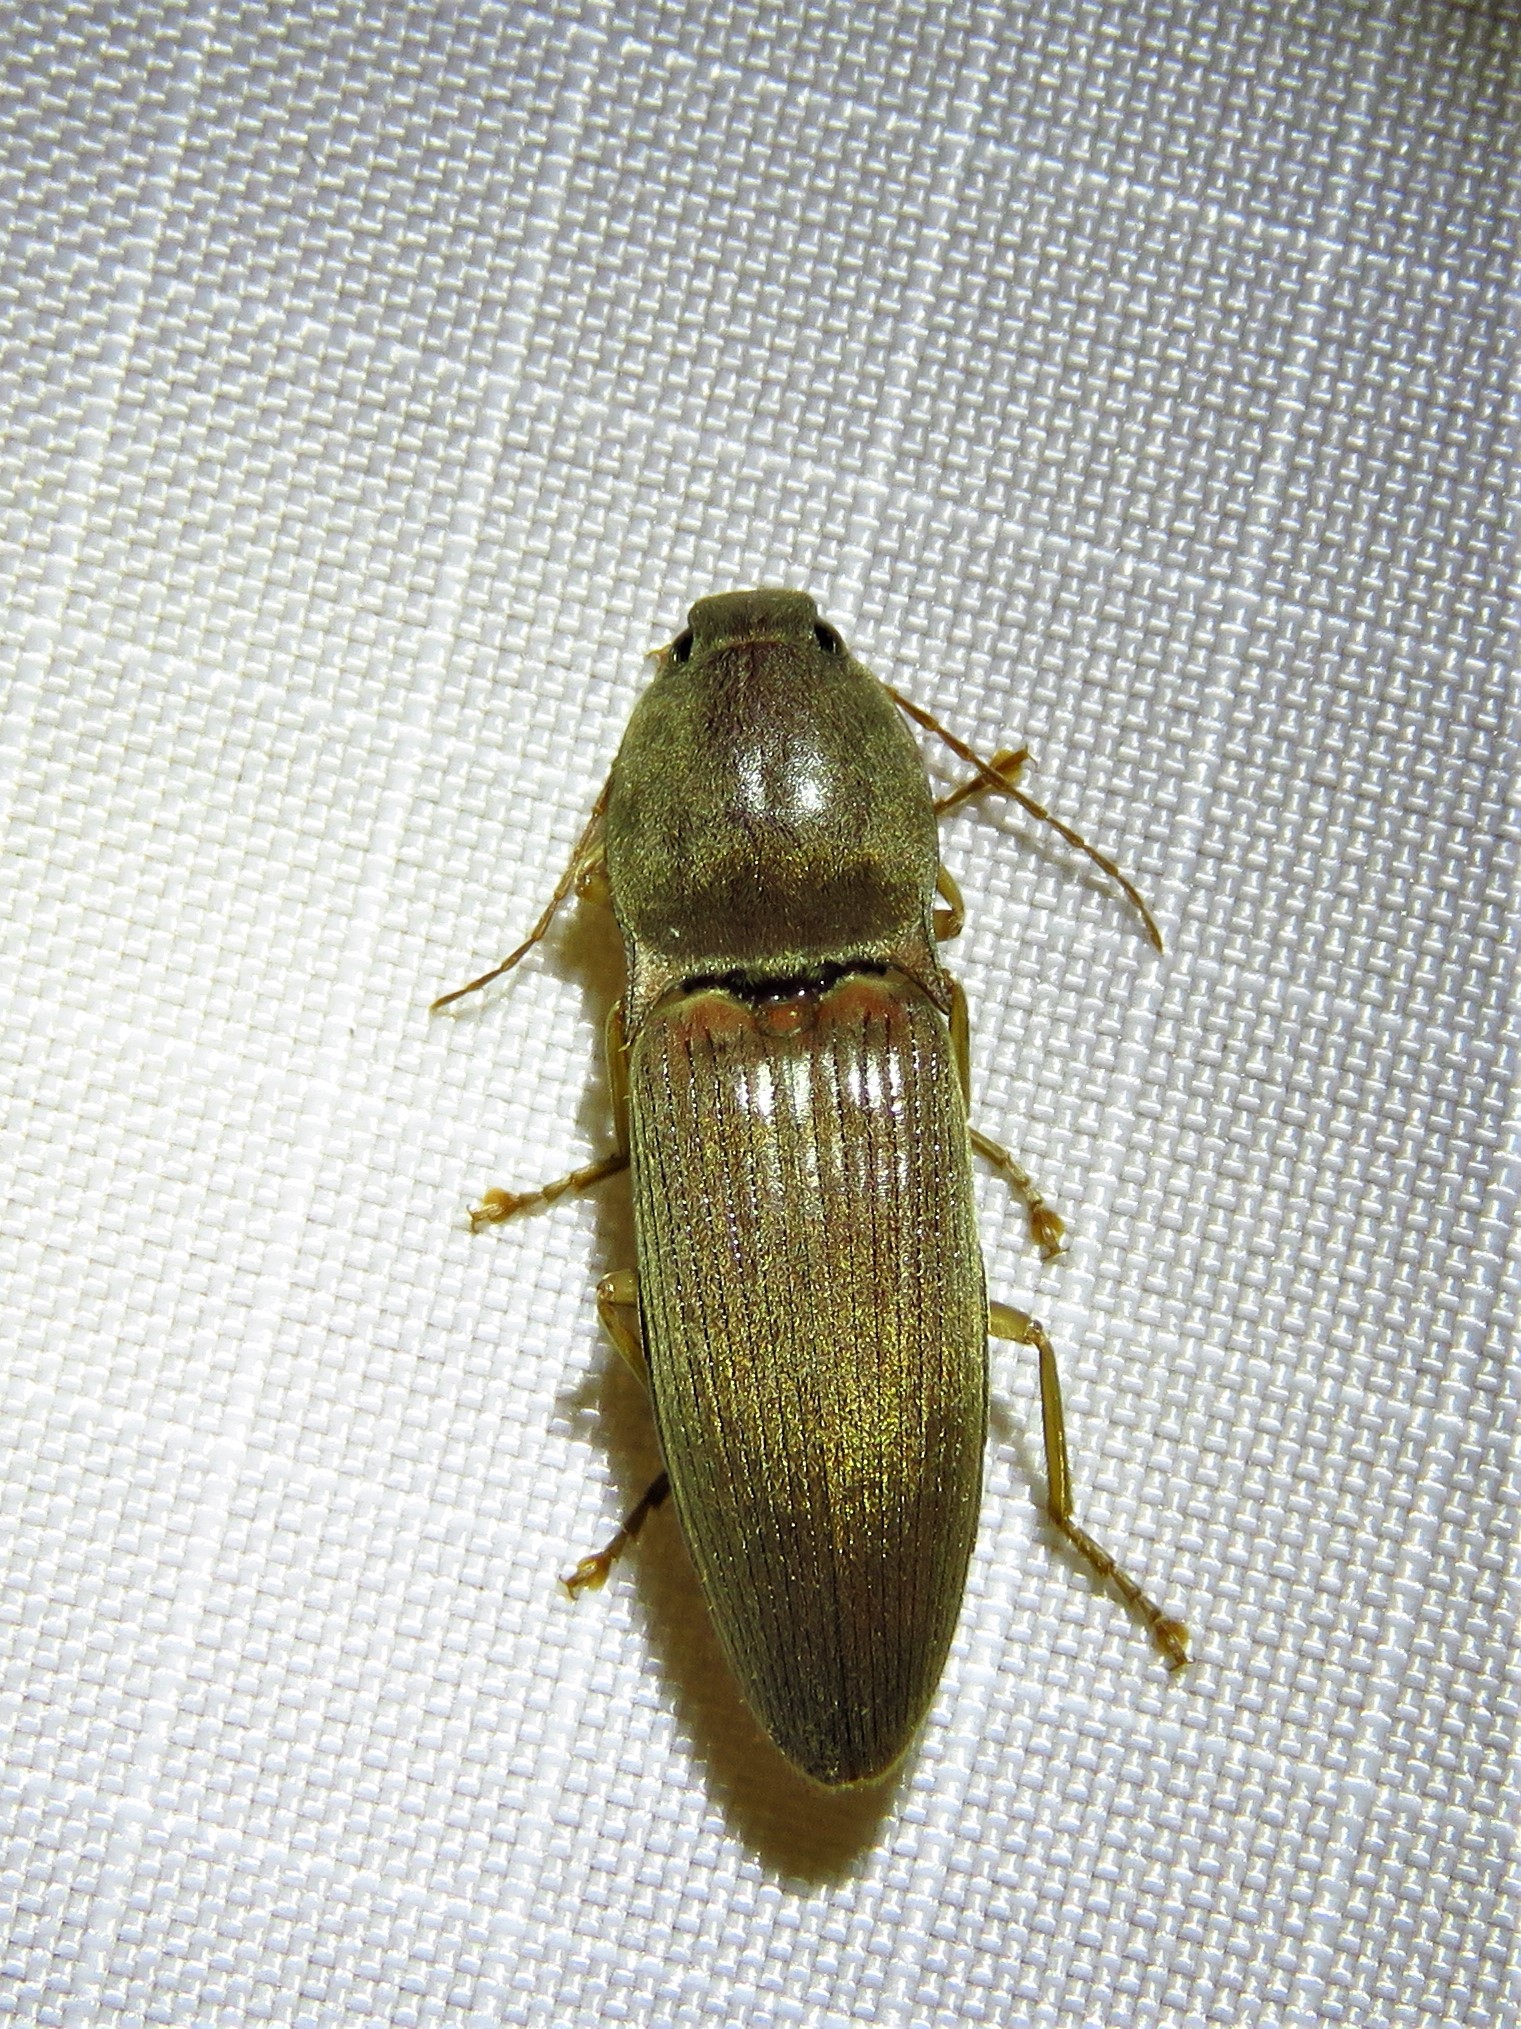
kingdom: Animalia
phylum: Arthropoda
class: Insecta
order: Coleoptera
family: Elateridae
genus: Monocrepidius
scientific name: Monocrepidius lividus
